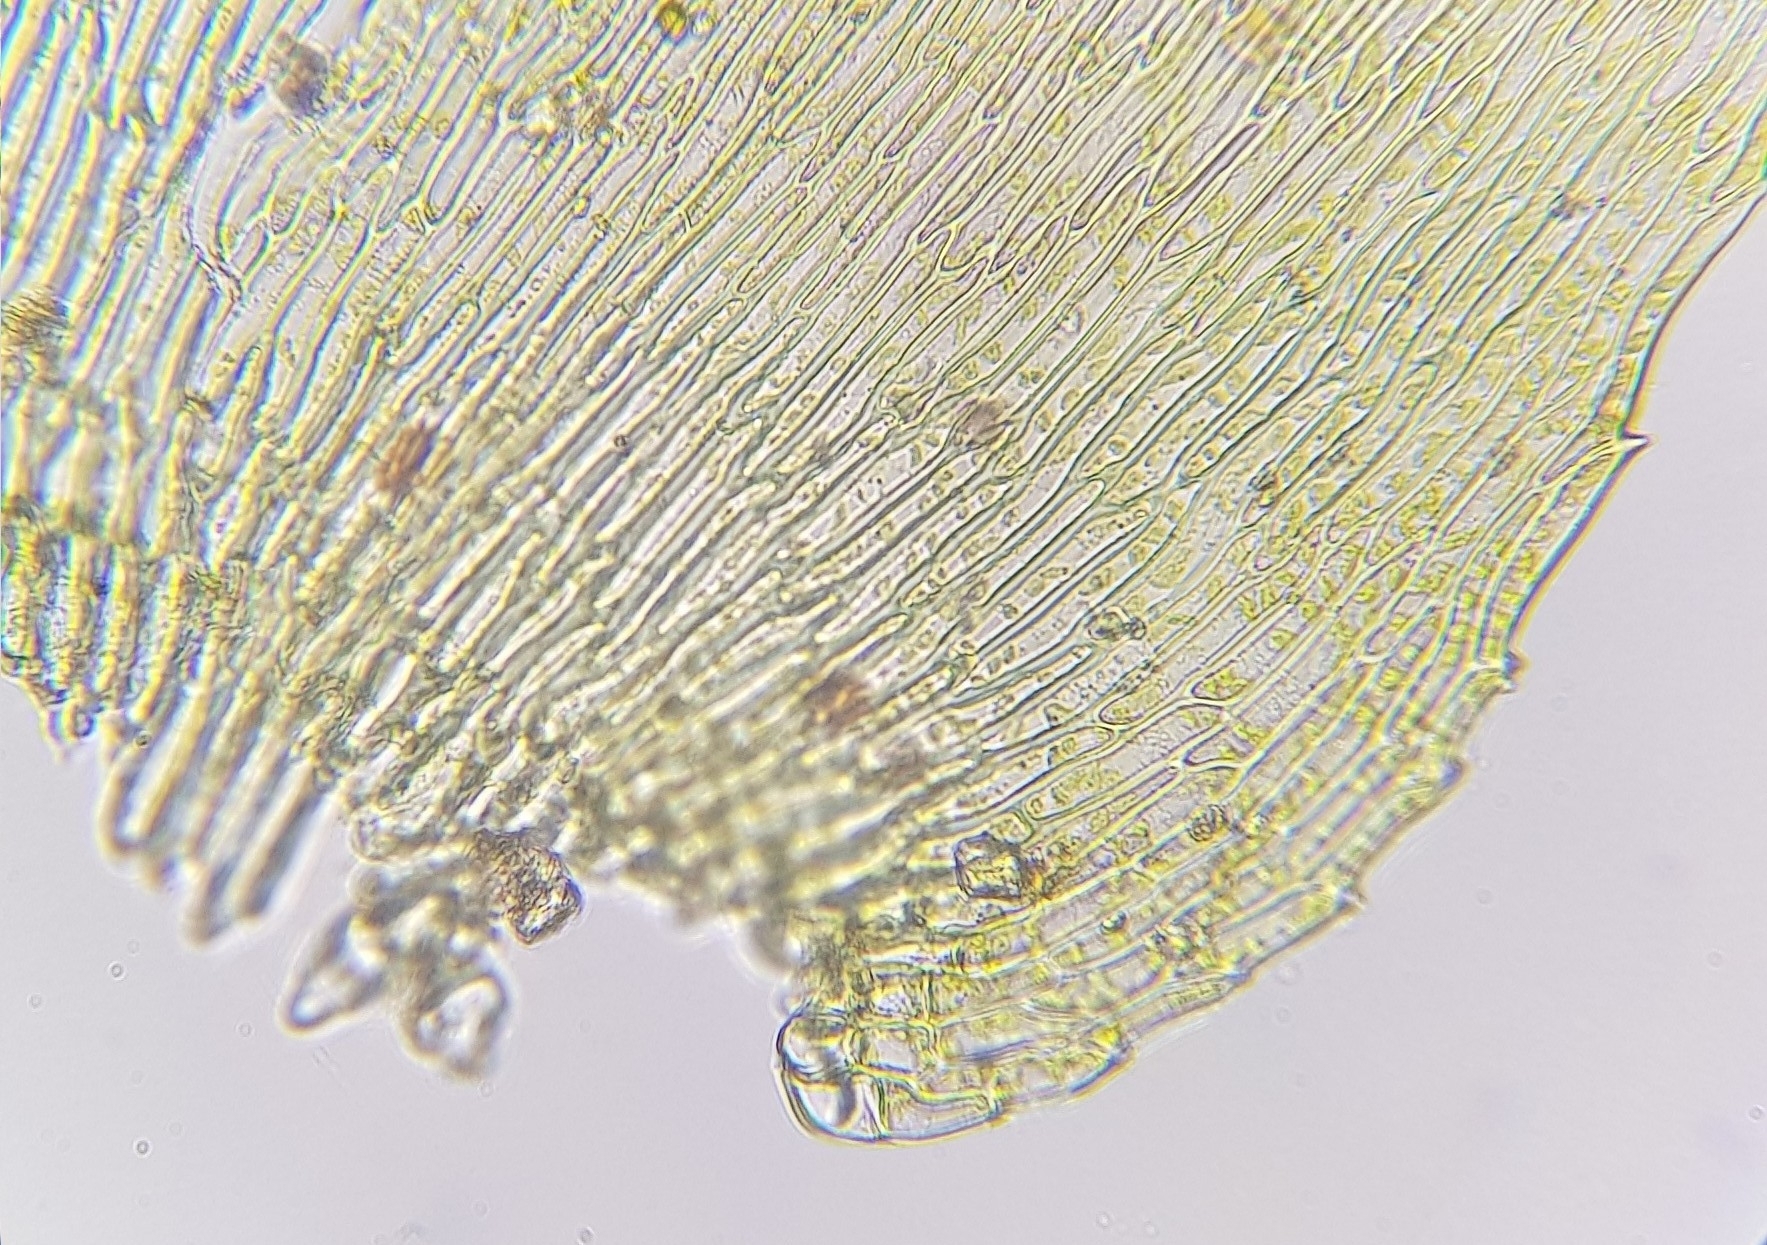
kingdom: Plantae
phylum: Bryophyta
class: Bryopsida
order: Hypnales
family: Amblystegiaceae
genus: Campylium
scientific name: Campylium protensum
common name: Dull starry fen moss
